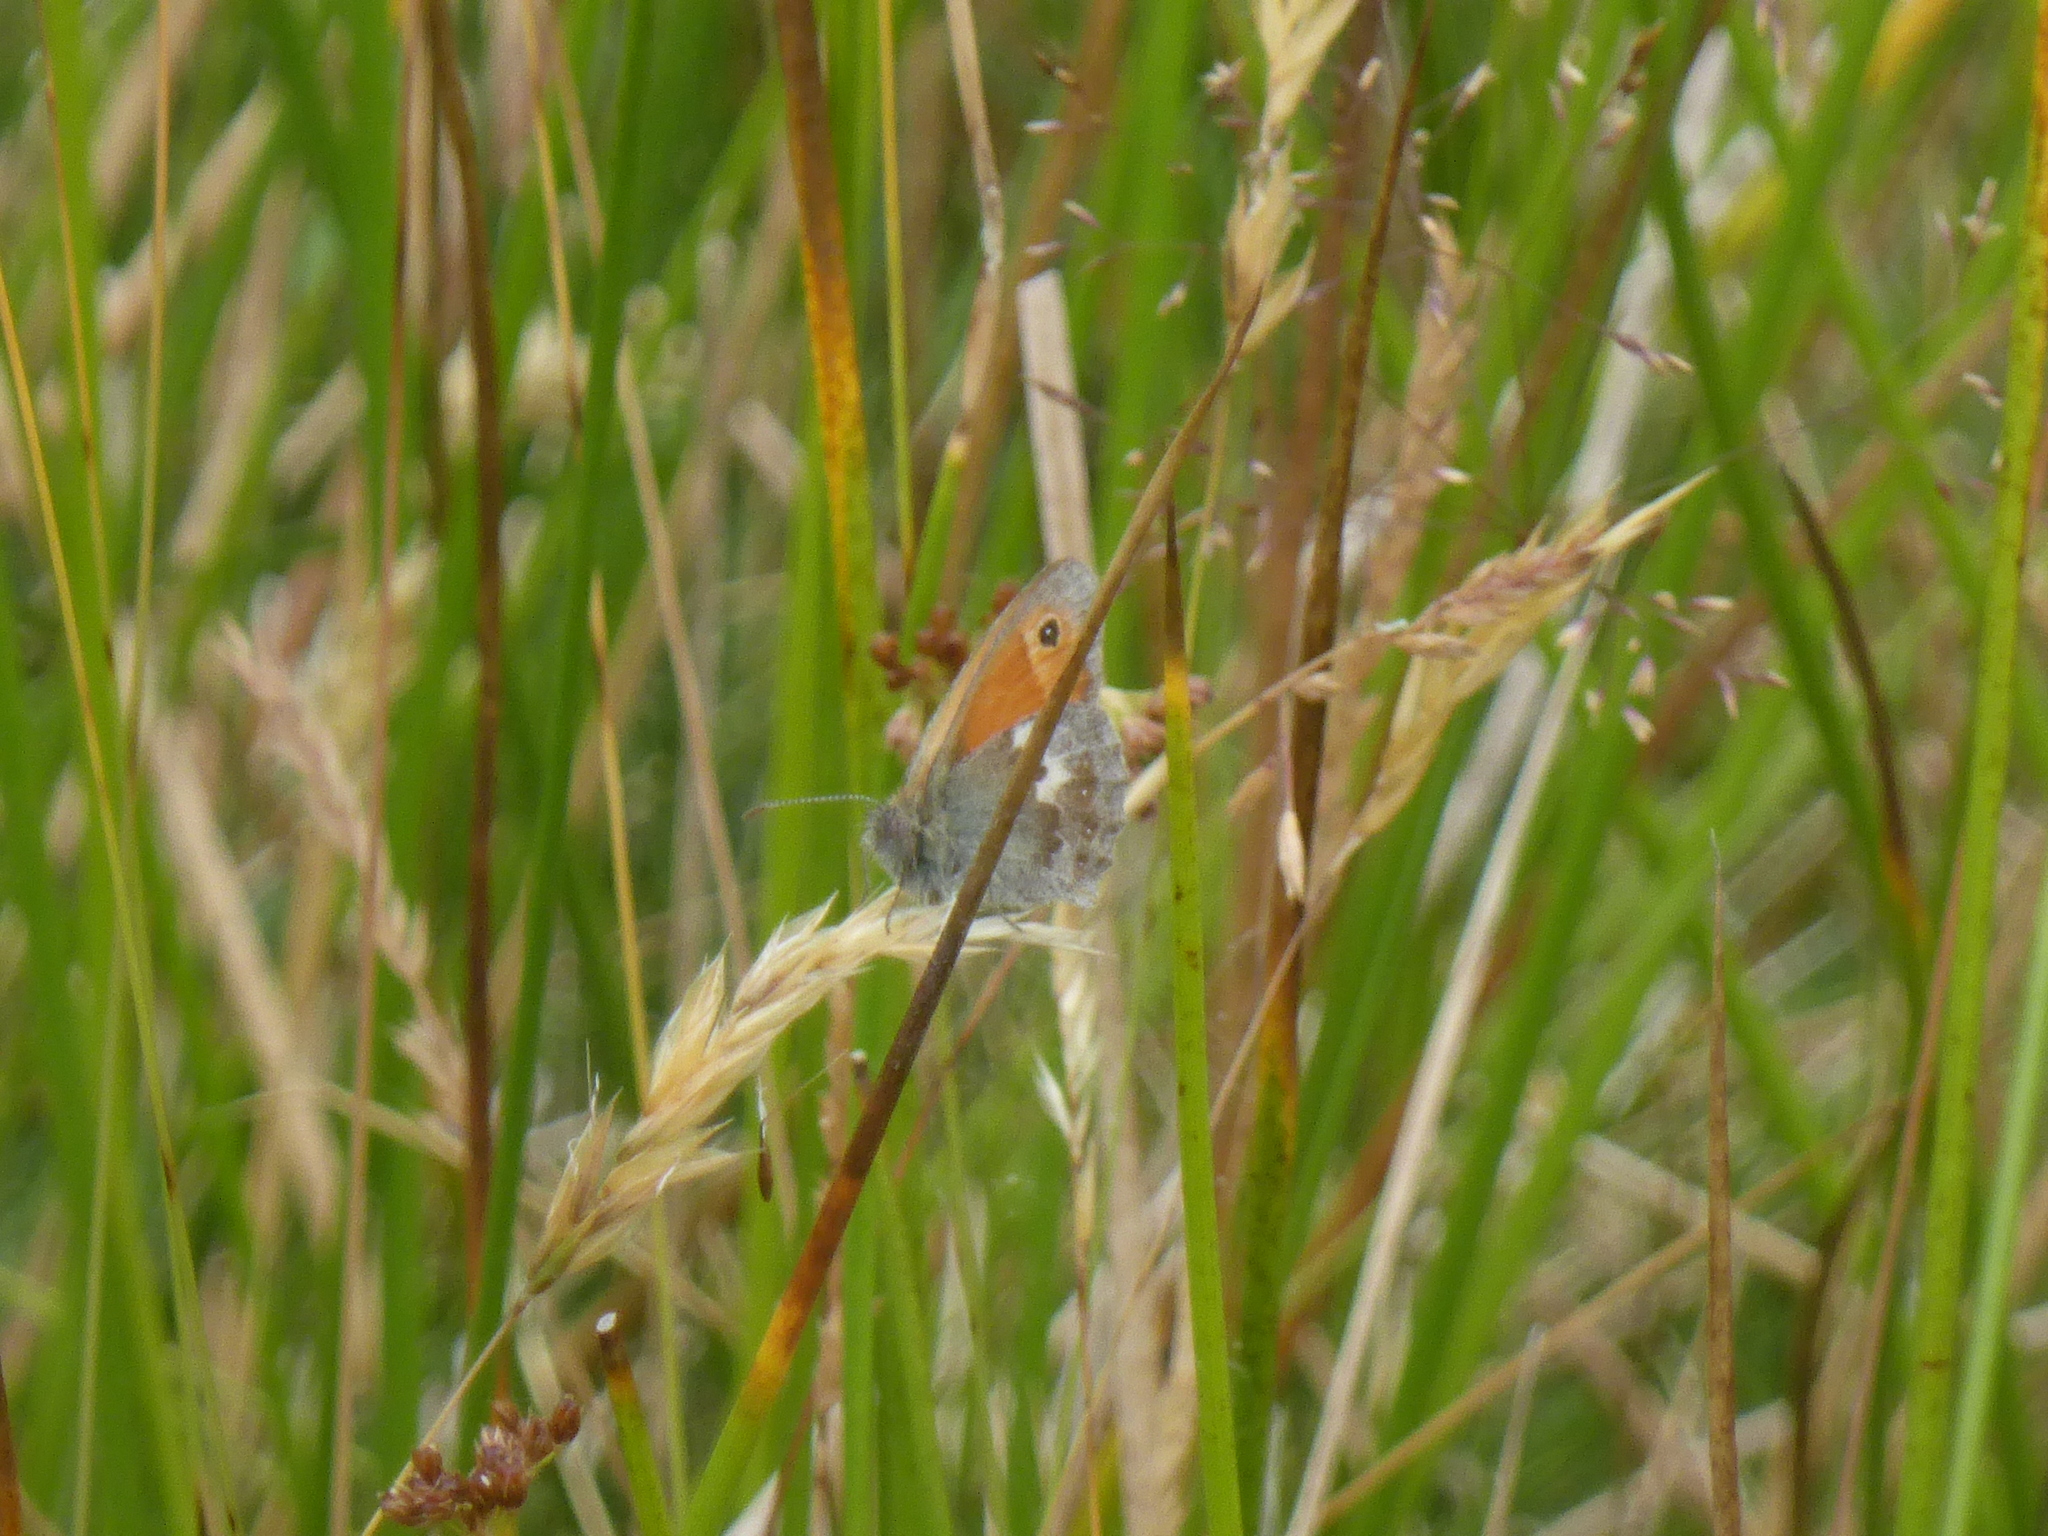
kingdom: Animalia
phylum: Arthropoda
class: Insecta
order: Lepidoptera
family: Nymphalidae
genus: Coenonympha
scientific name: Coenonympha pamphilus
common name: Small heath
